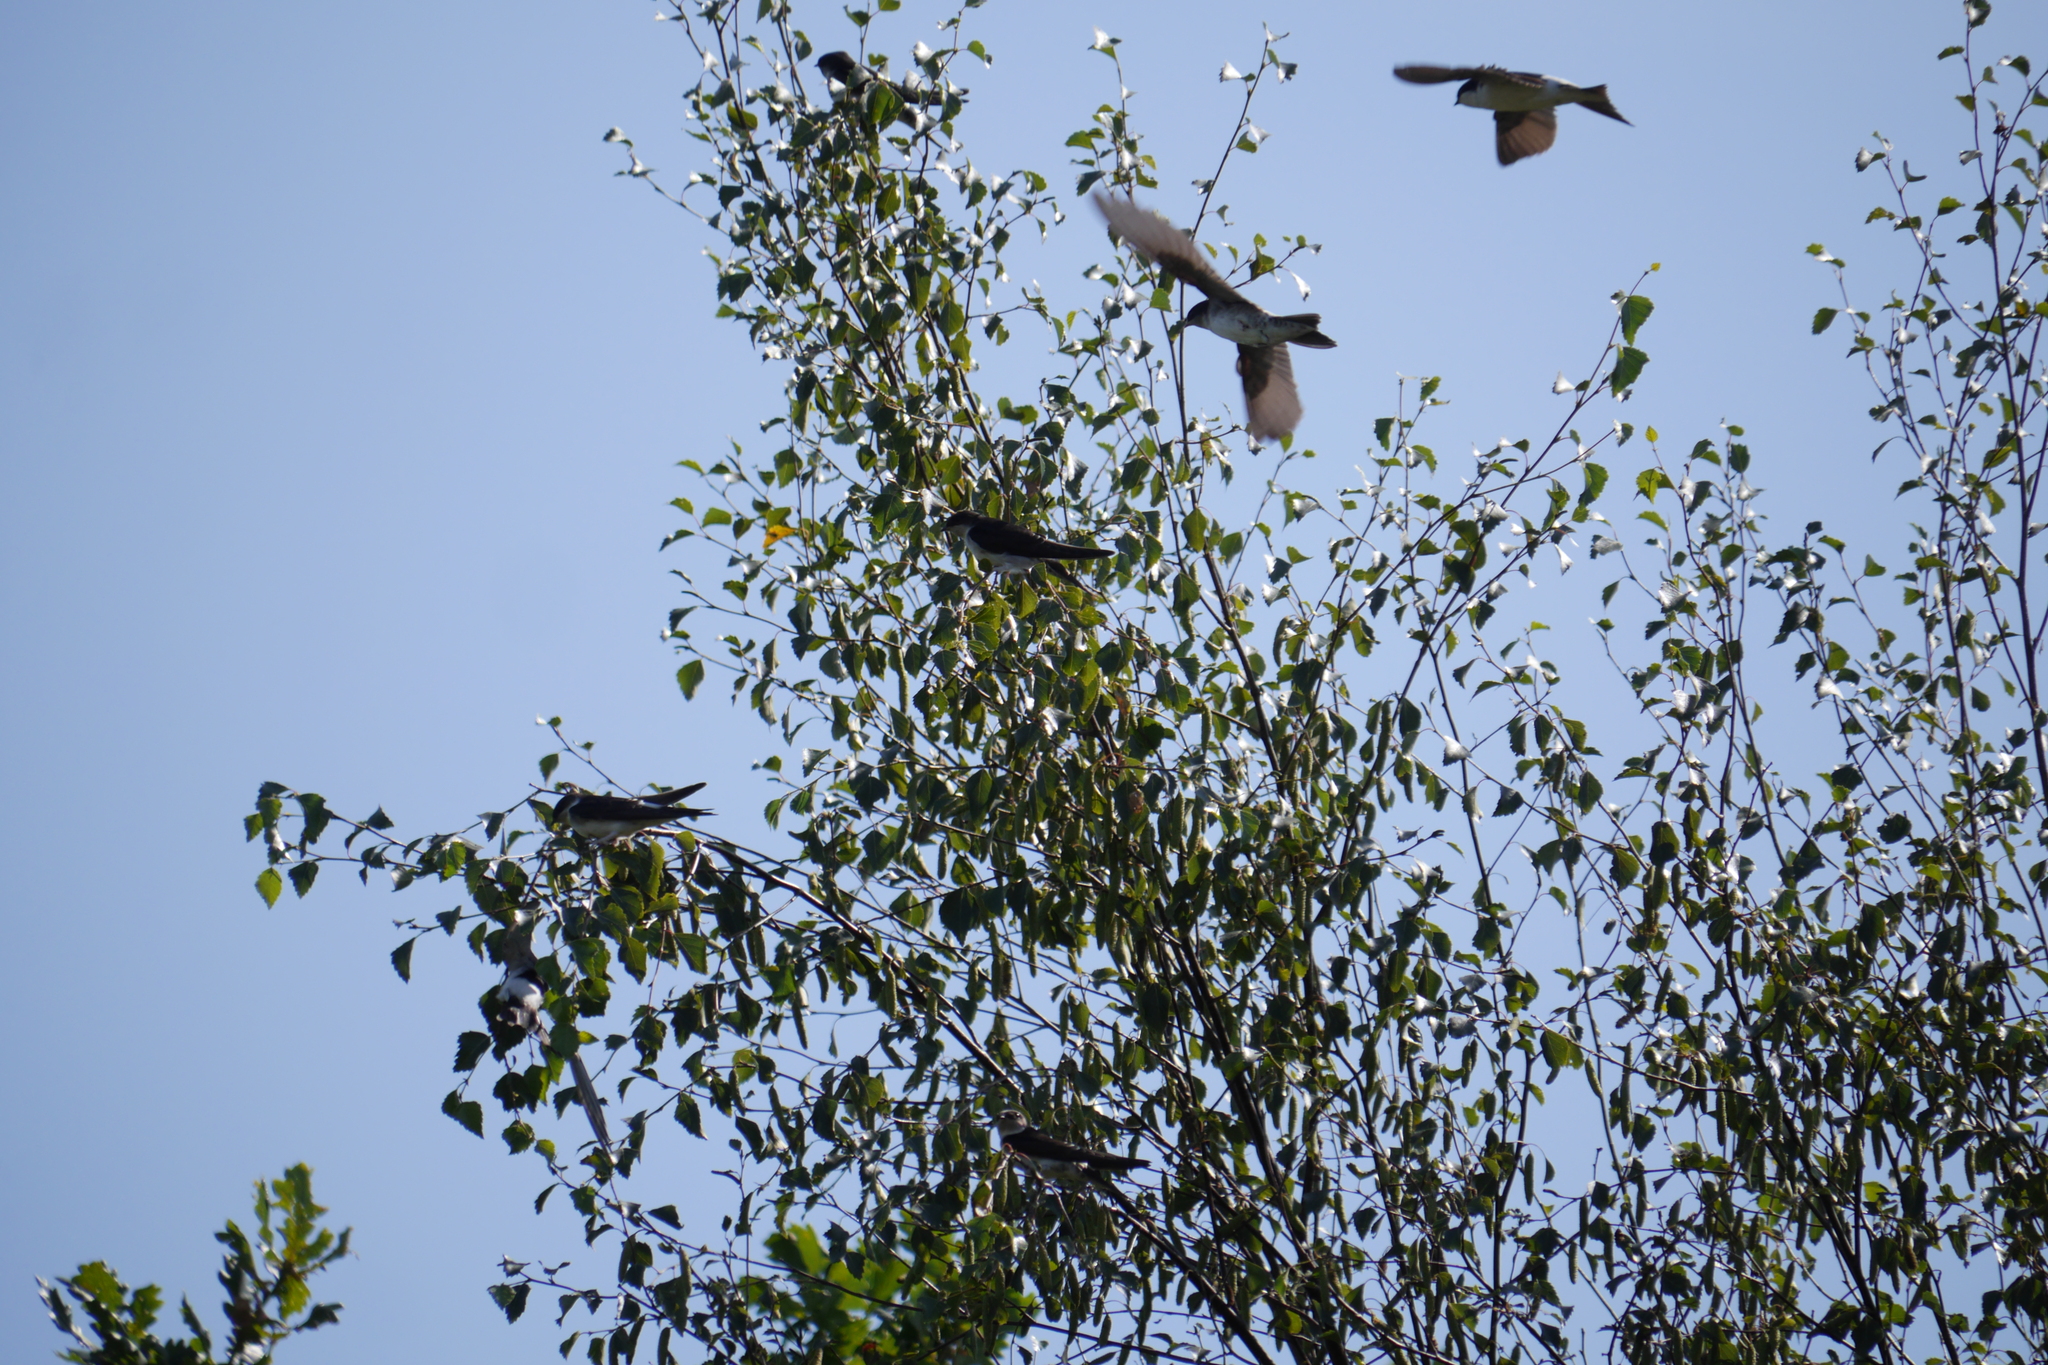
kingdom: Animalia
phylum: Chordata
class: Aves
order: Passeriformes
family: Hirundinidae
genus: Delichon
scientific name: Delichon urbicum
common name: Common house martin
